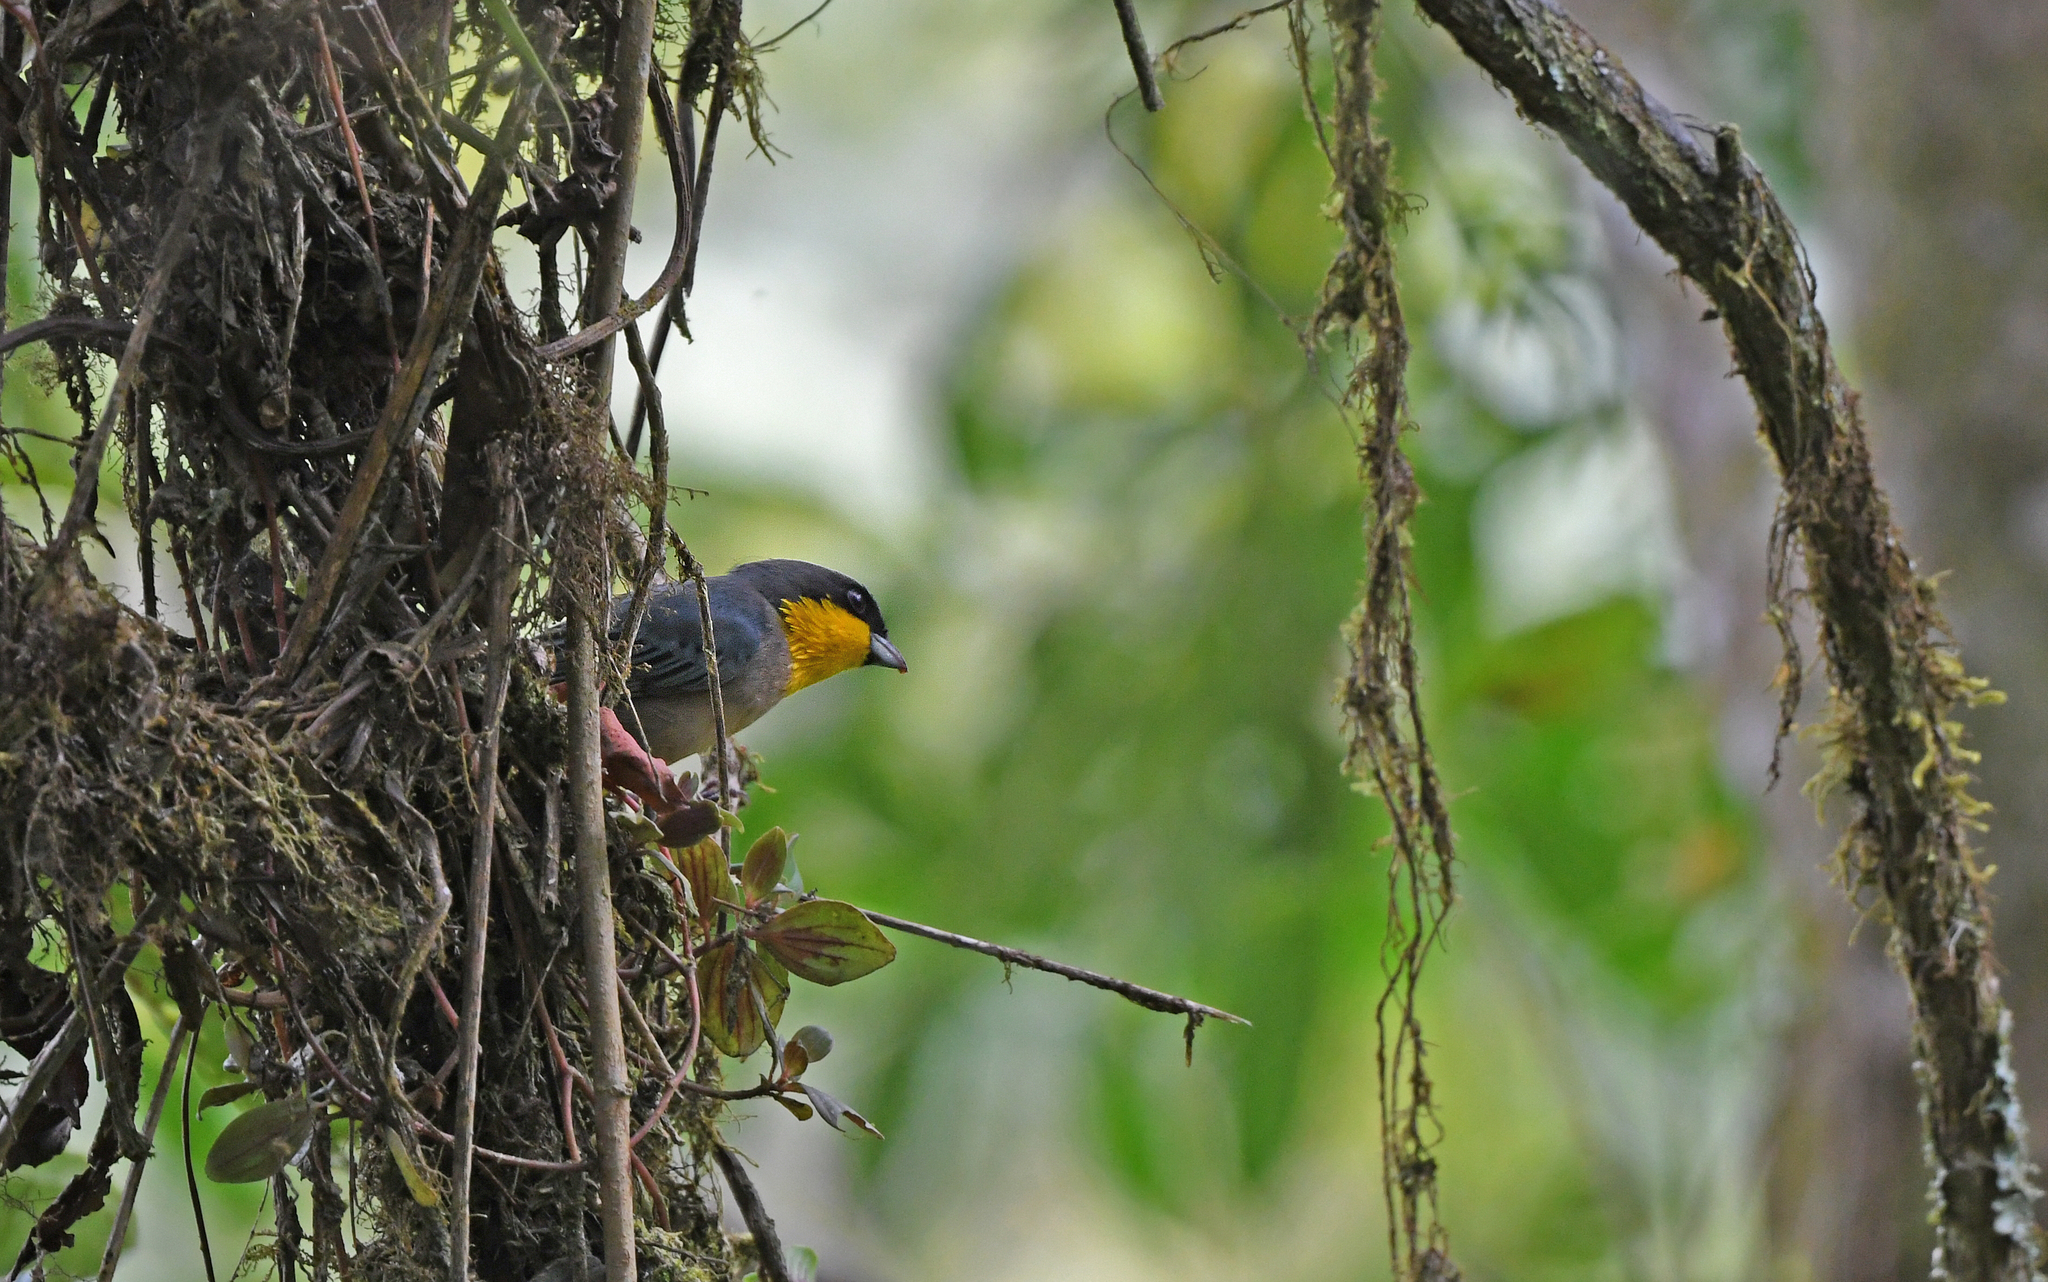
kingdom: Animalia
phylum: Chordata
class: Aves
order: Passeriformes
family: Thraupidae
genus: Iridosornis
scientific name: Iridosornis analis
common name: Yellow-throated tanager
